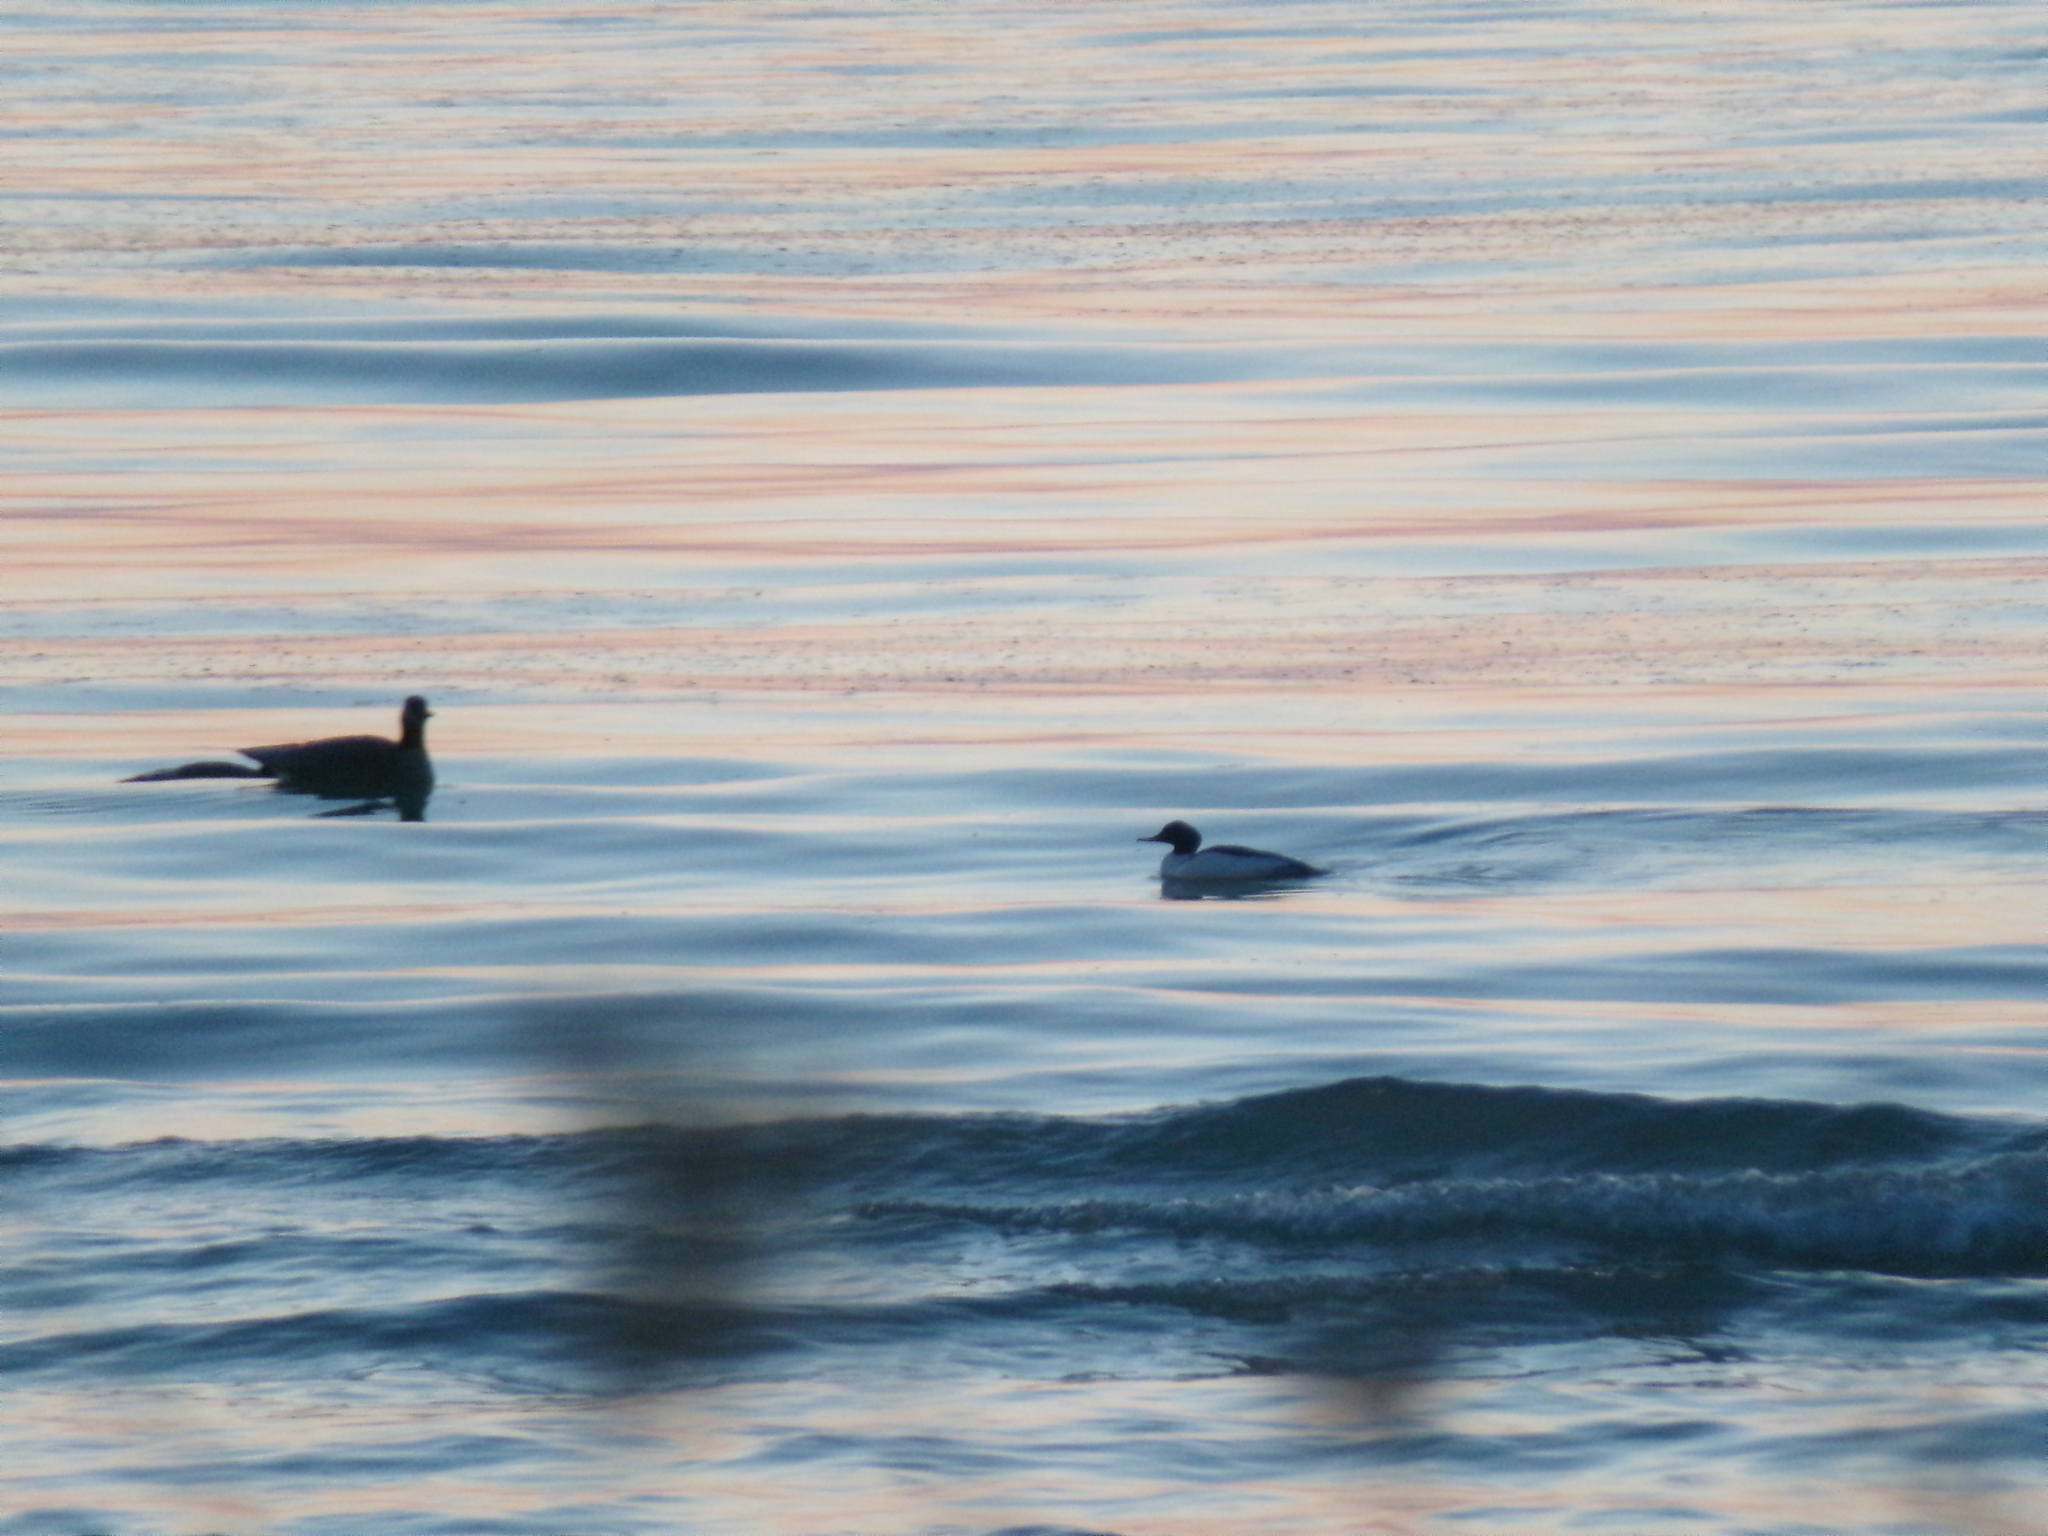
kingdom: Animalia
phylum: Chordata
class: Aves
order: Anseriformes
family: Anatidae
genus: Mergus
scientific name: Mergus merganser
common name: Common merganser
